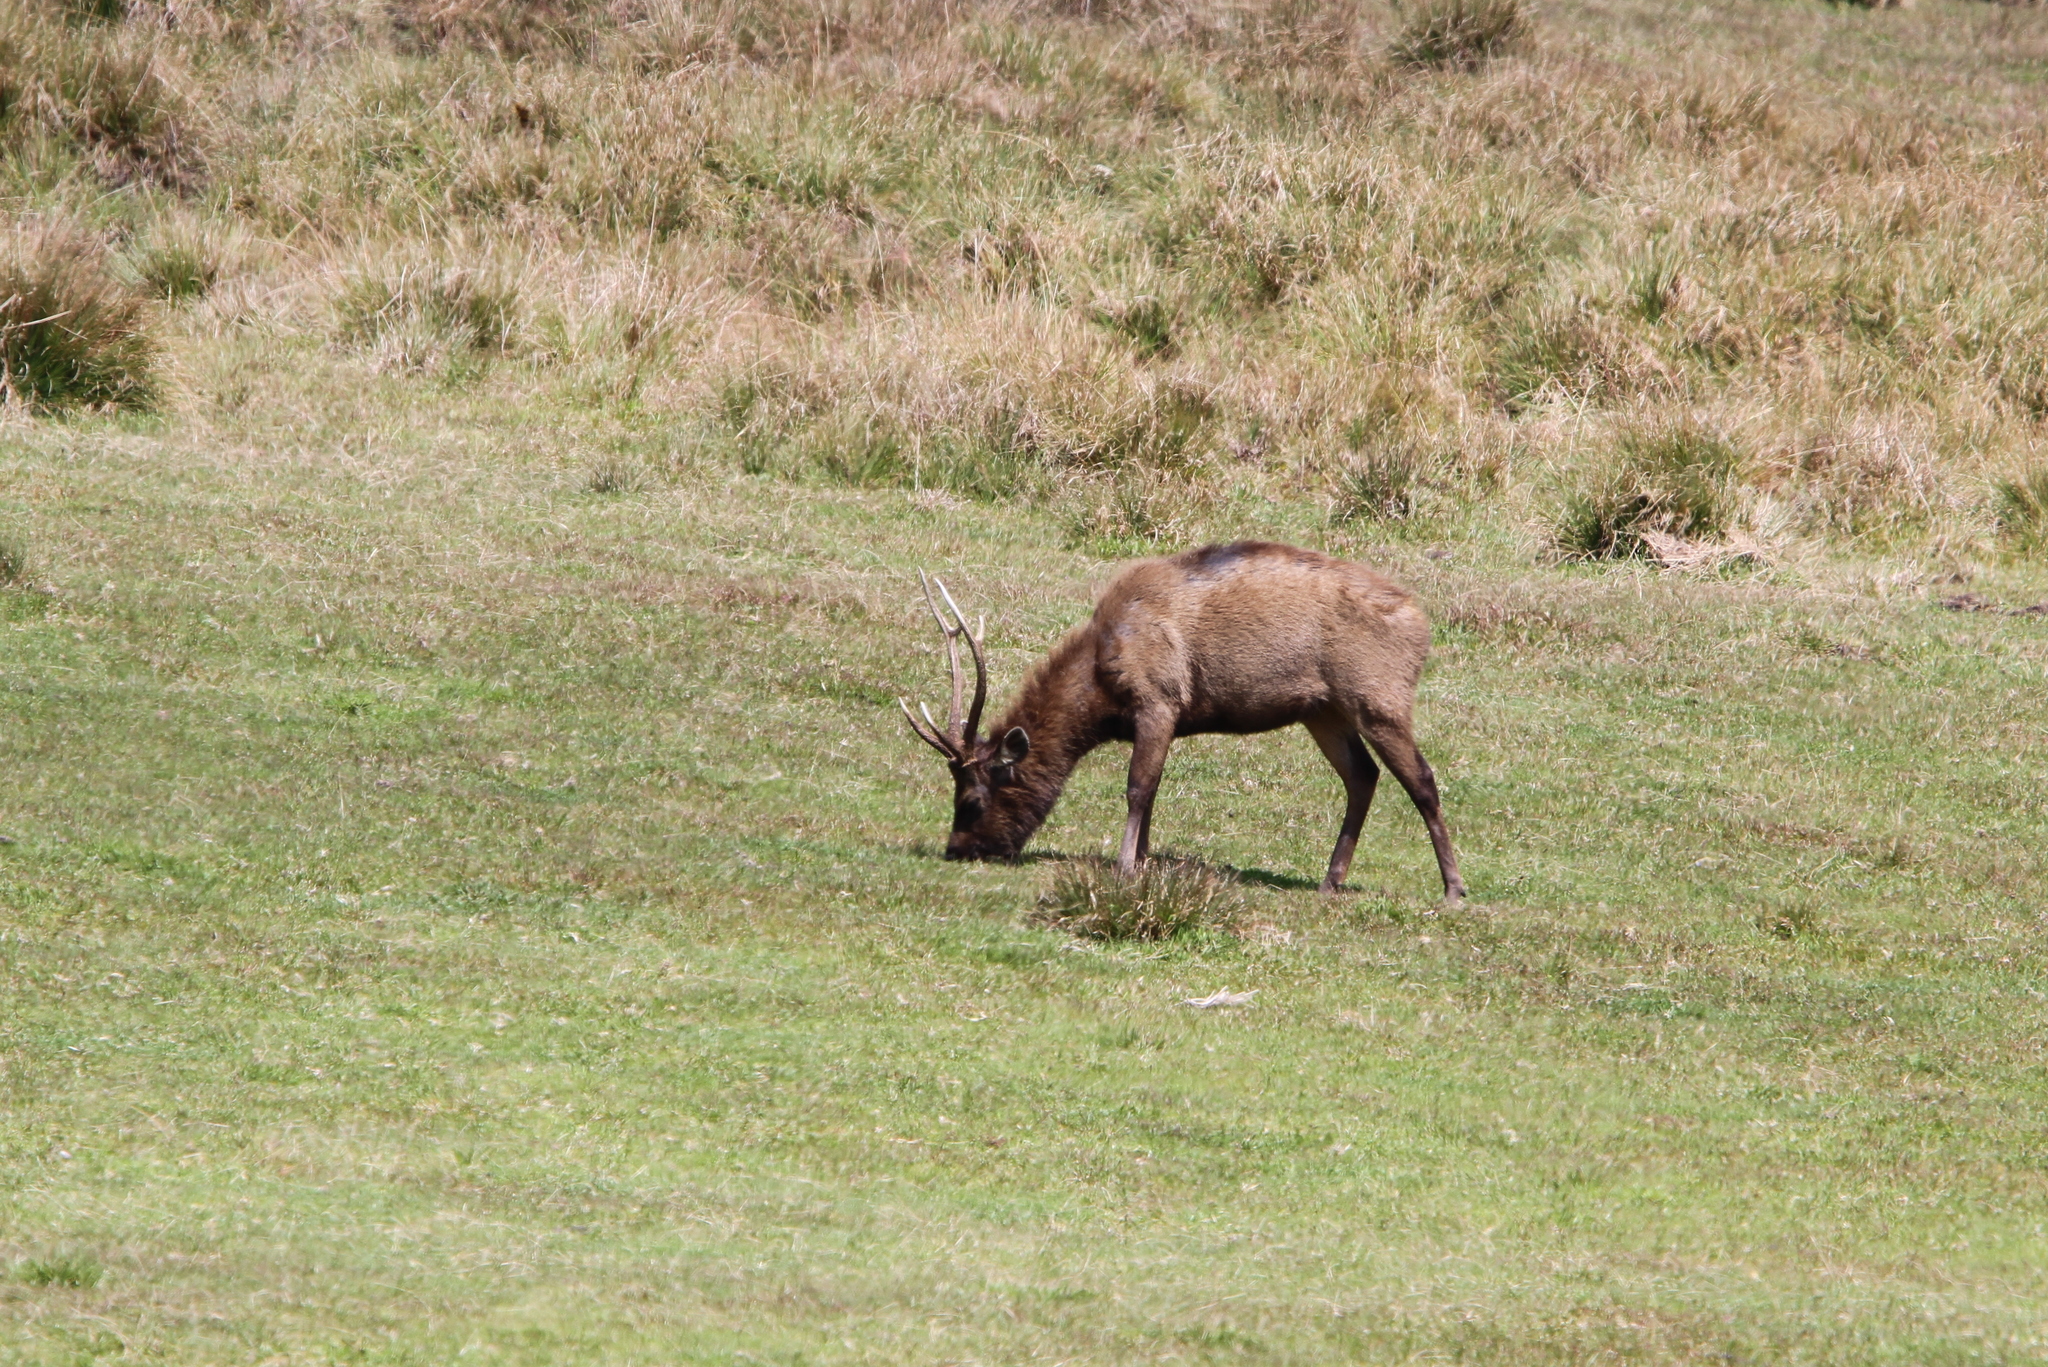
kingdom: Animalia
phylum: Chordata
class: Mammalia
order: Artiodactyla
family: Cervidae
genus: Rusa
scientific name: Rusa unicolor
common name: Sambar
